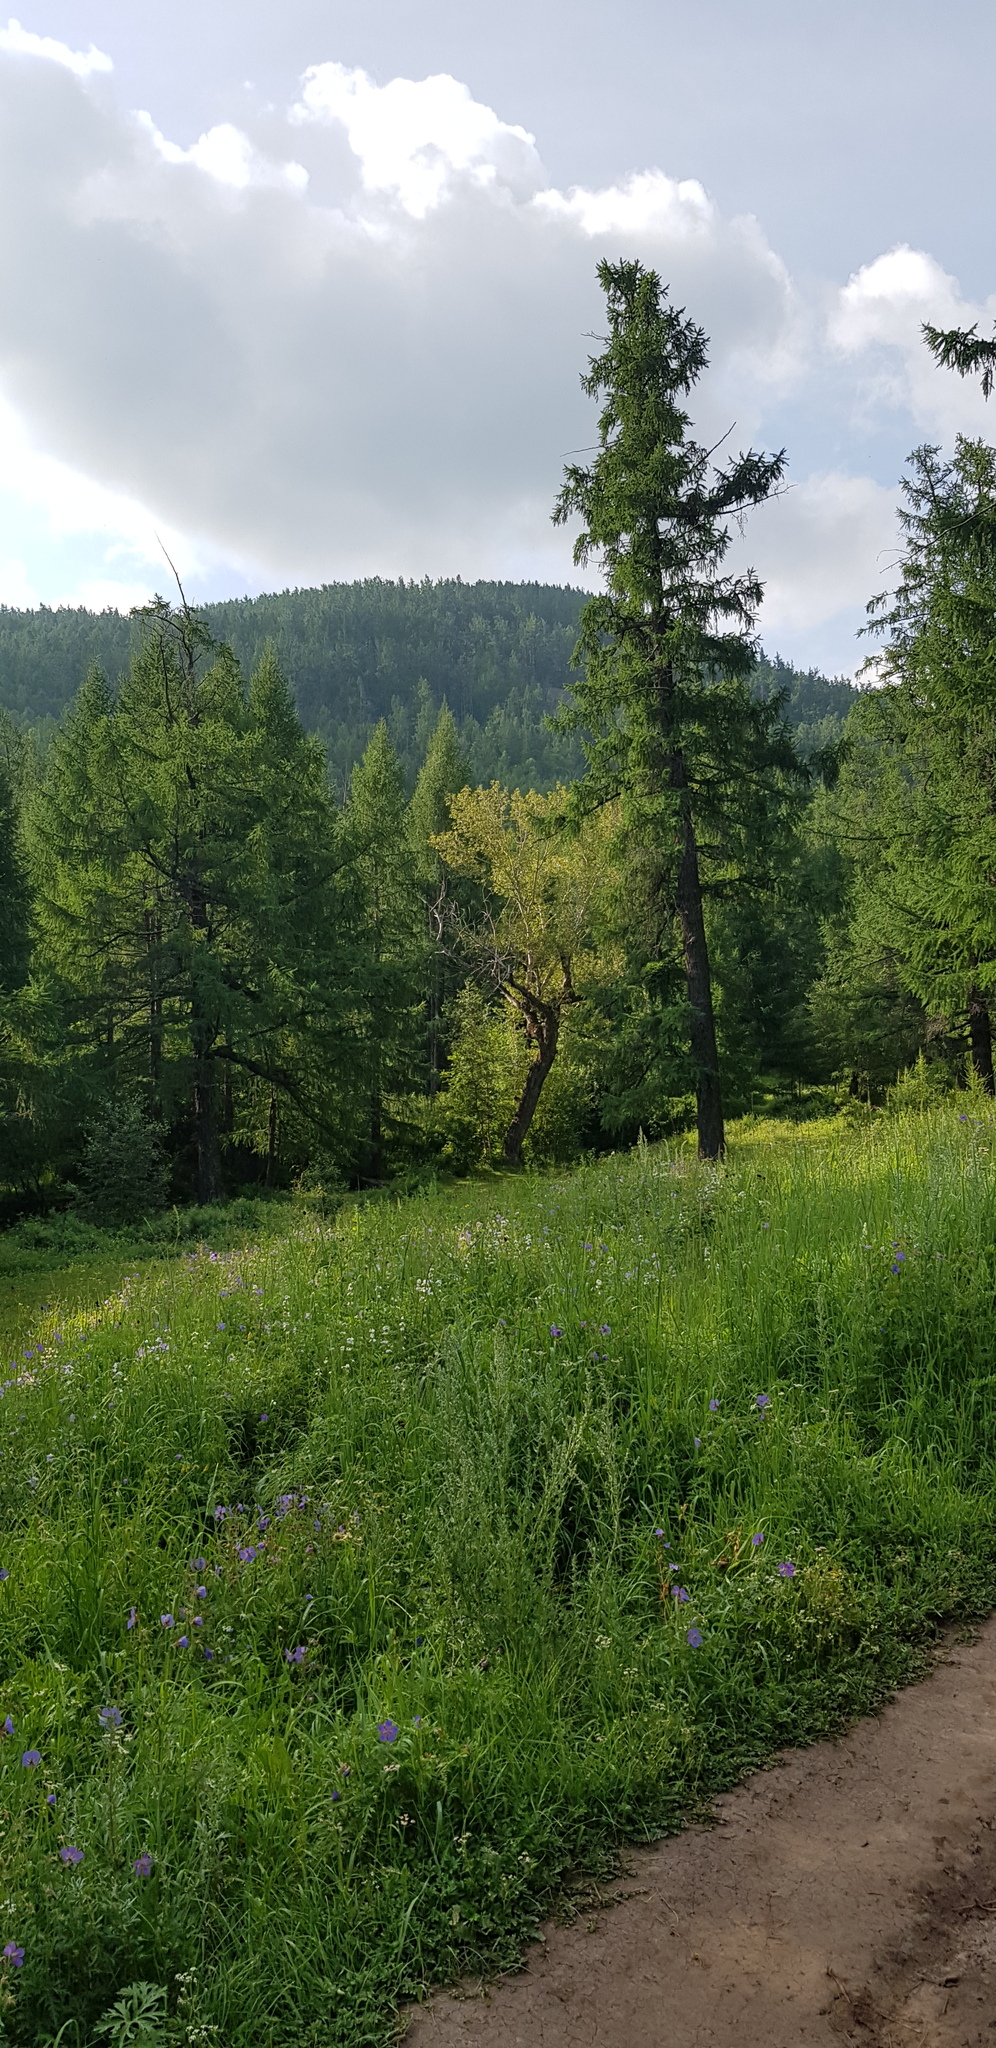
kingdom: Plantae
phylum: Tracheophyta
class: Pinopsida
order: Pinales
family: Pinaceae
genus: Larix
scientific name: Larix sibirica
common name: Siberian larch
